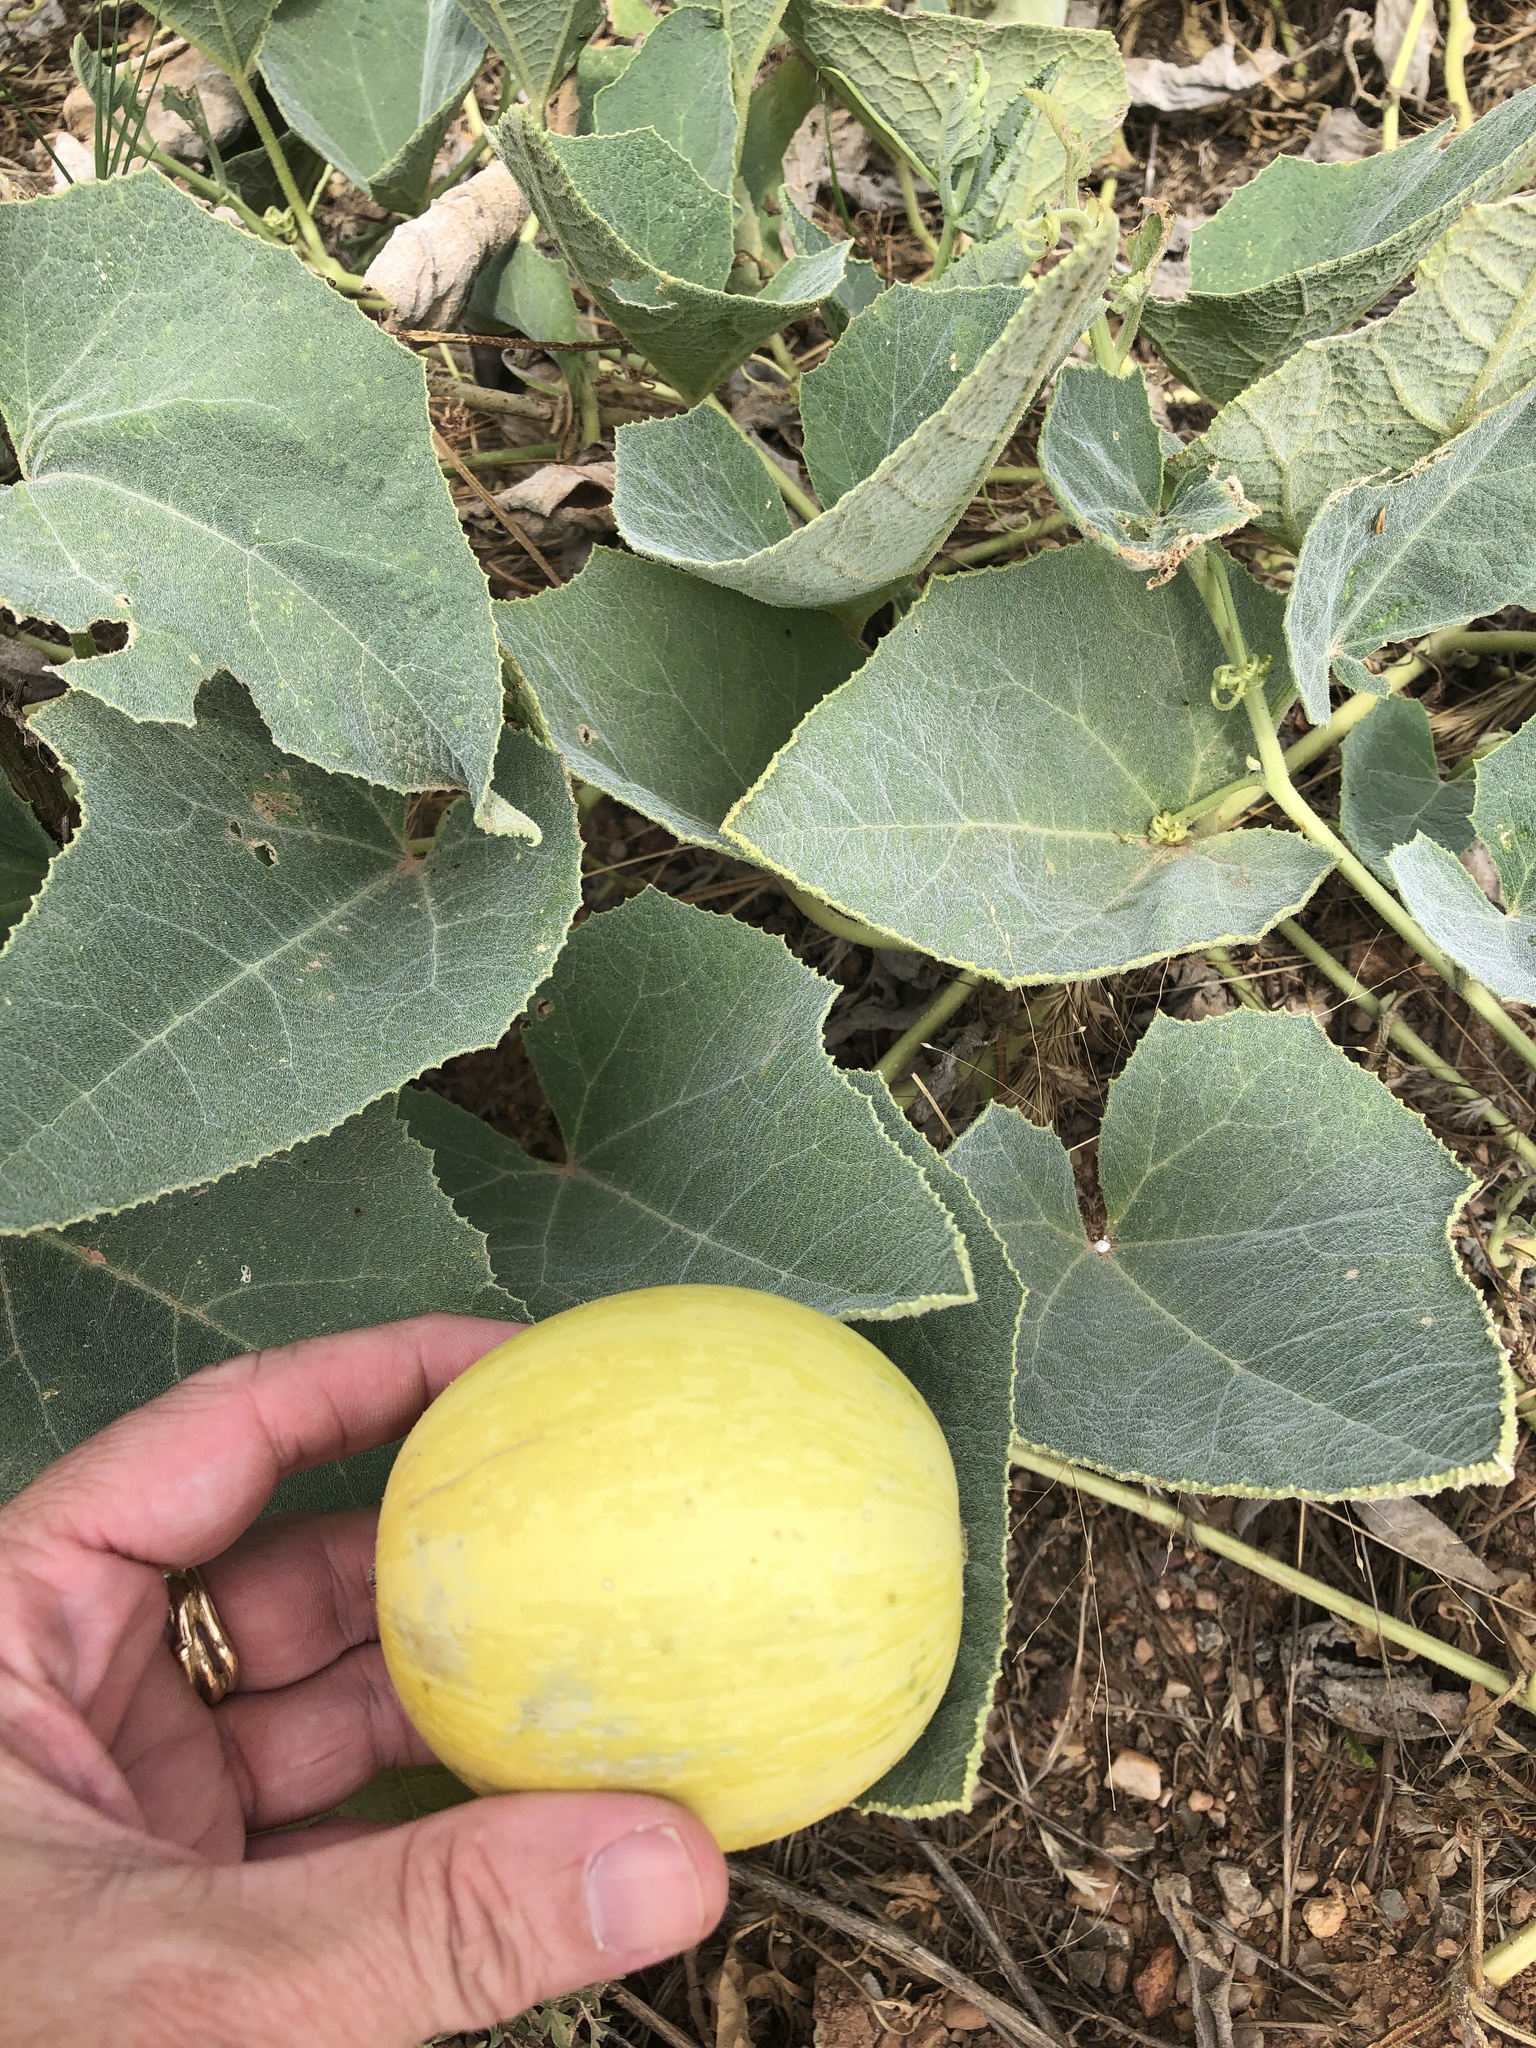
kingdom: Plantae
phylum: Tracheophyta
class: Magnoliopsida
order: Cucurbitales
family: Cucurbitaceae
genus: Cucurbita
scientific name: Cucurbita foetidissima
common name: Buffalo gourd
